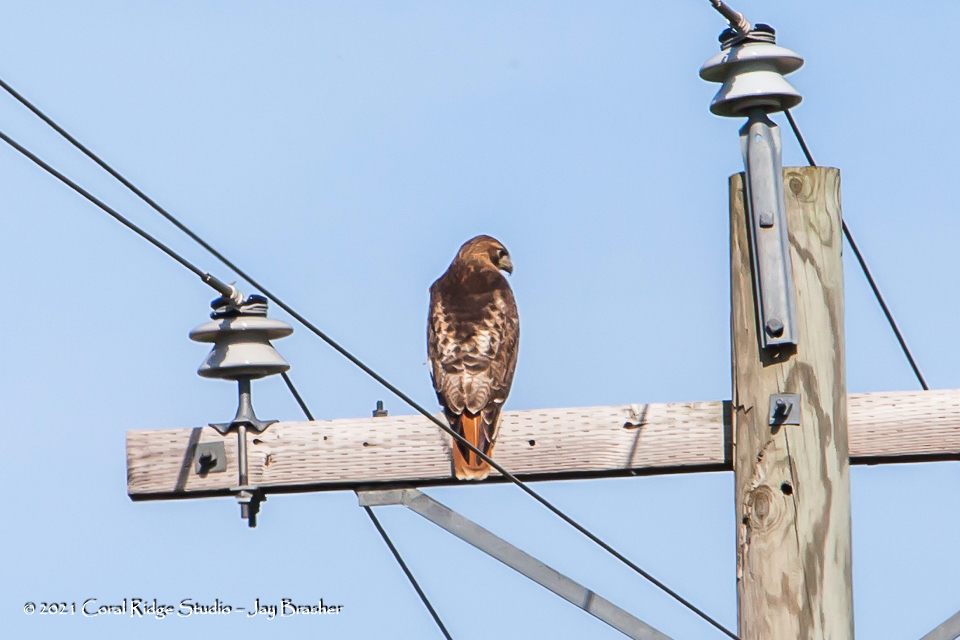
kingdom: Animalia
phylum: Chordata
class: Aves
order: Accipitriformes
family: Accipitridae
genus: Buteo
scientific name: Buteo jamaicensis
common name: Red-tailed hawk
